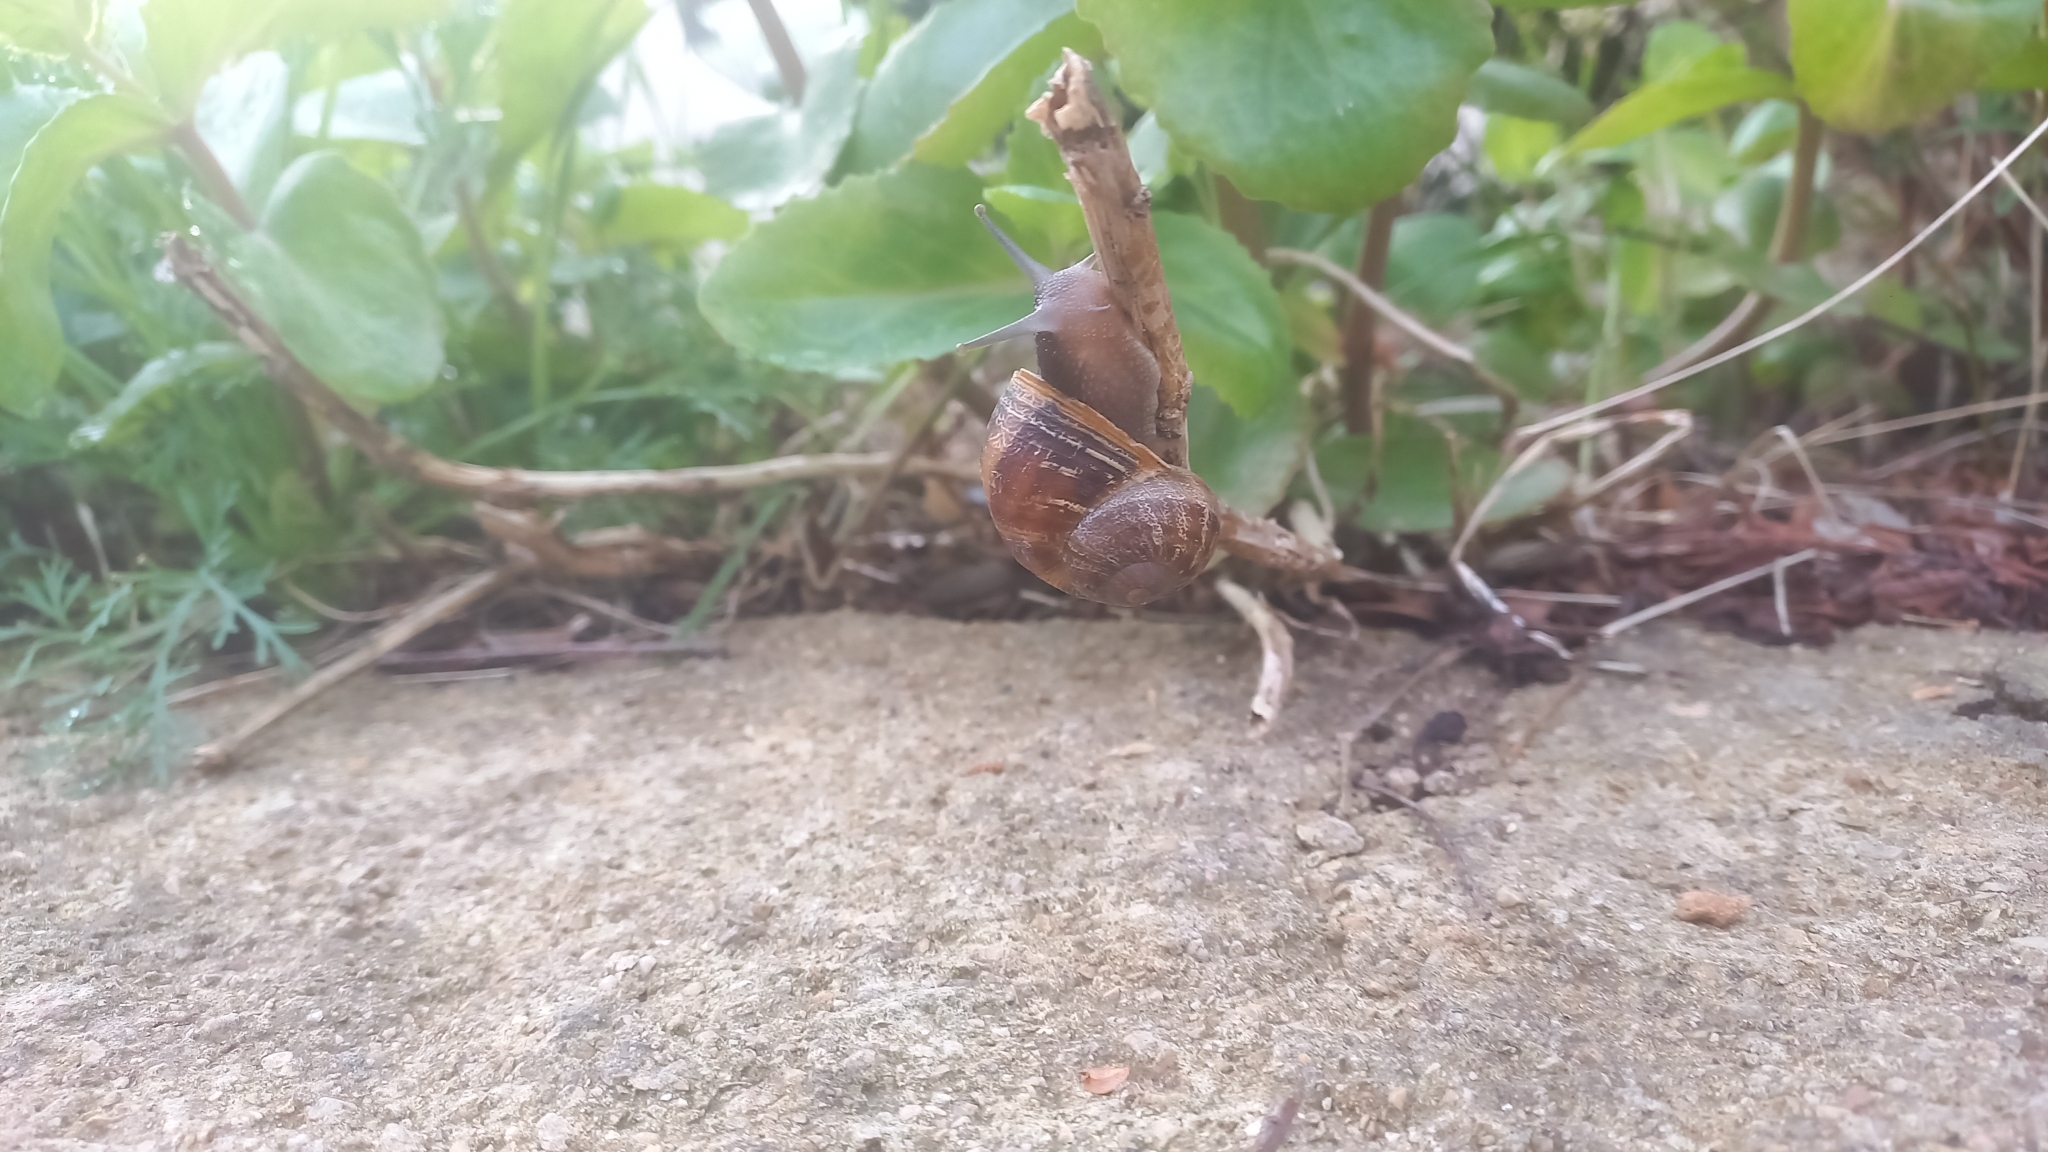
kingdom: Animalia
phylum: Mollusca
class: Gastropoda
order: Stylommatophora
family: Helicidae
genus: Cornu
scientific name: Cornu aspersum
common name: Brown garden snail
